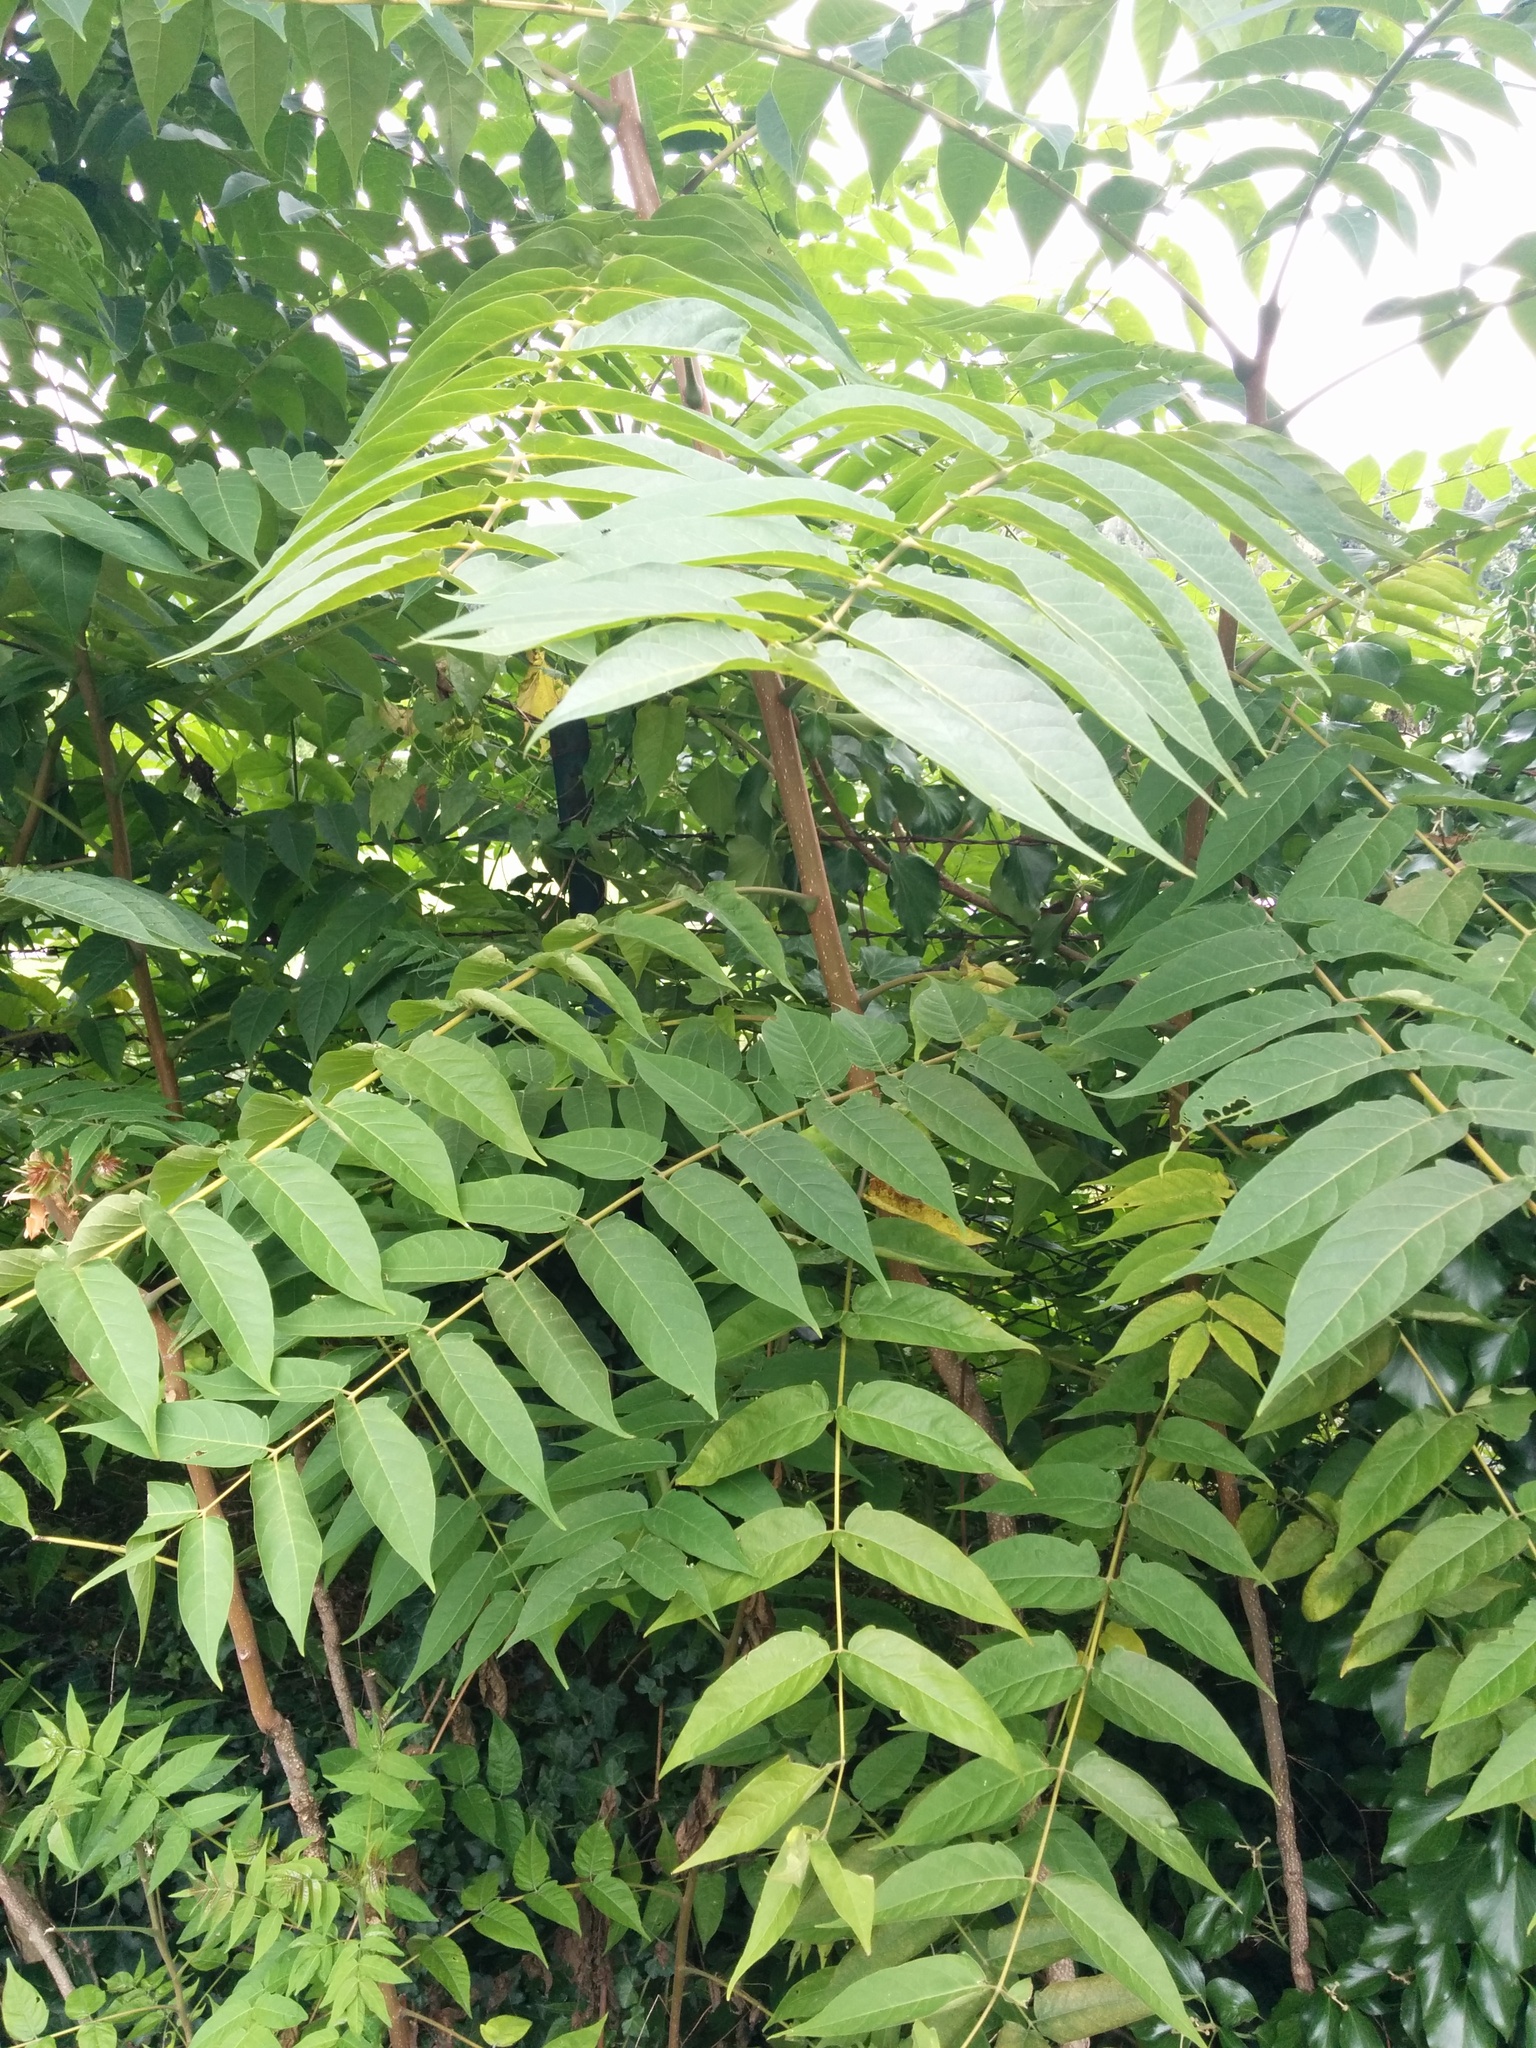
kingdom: Plantae
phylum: Tracheophyta
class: Magnoliopsida
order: Sapindales
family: Simaroubaceae
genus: Ailanthus
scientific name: Ailanthus altissima
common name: Tree-of-heaven
